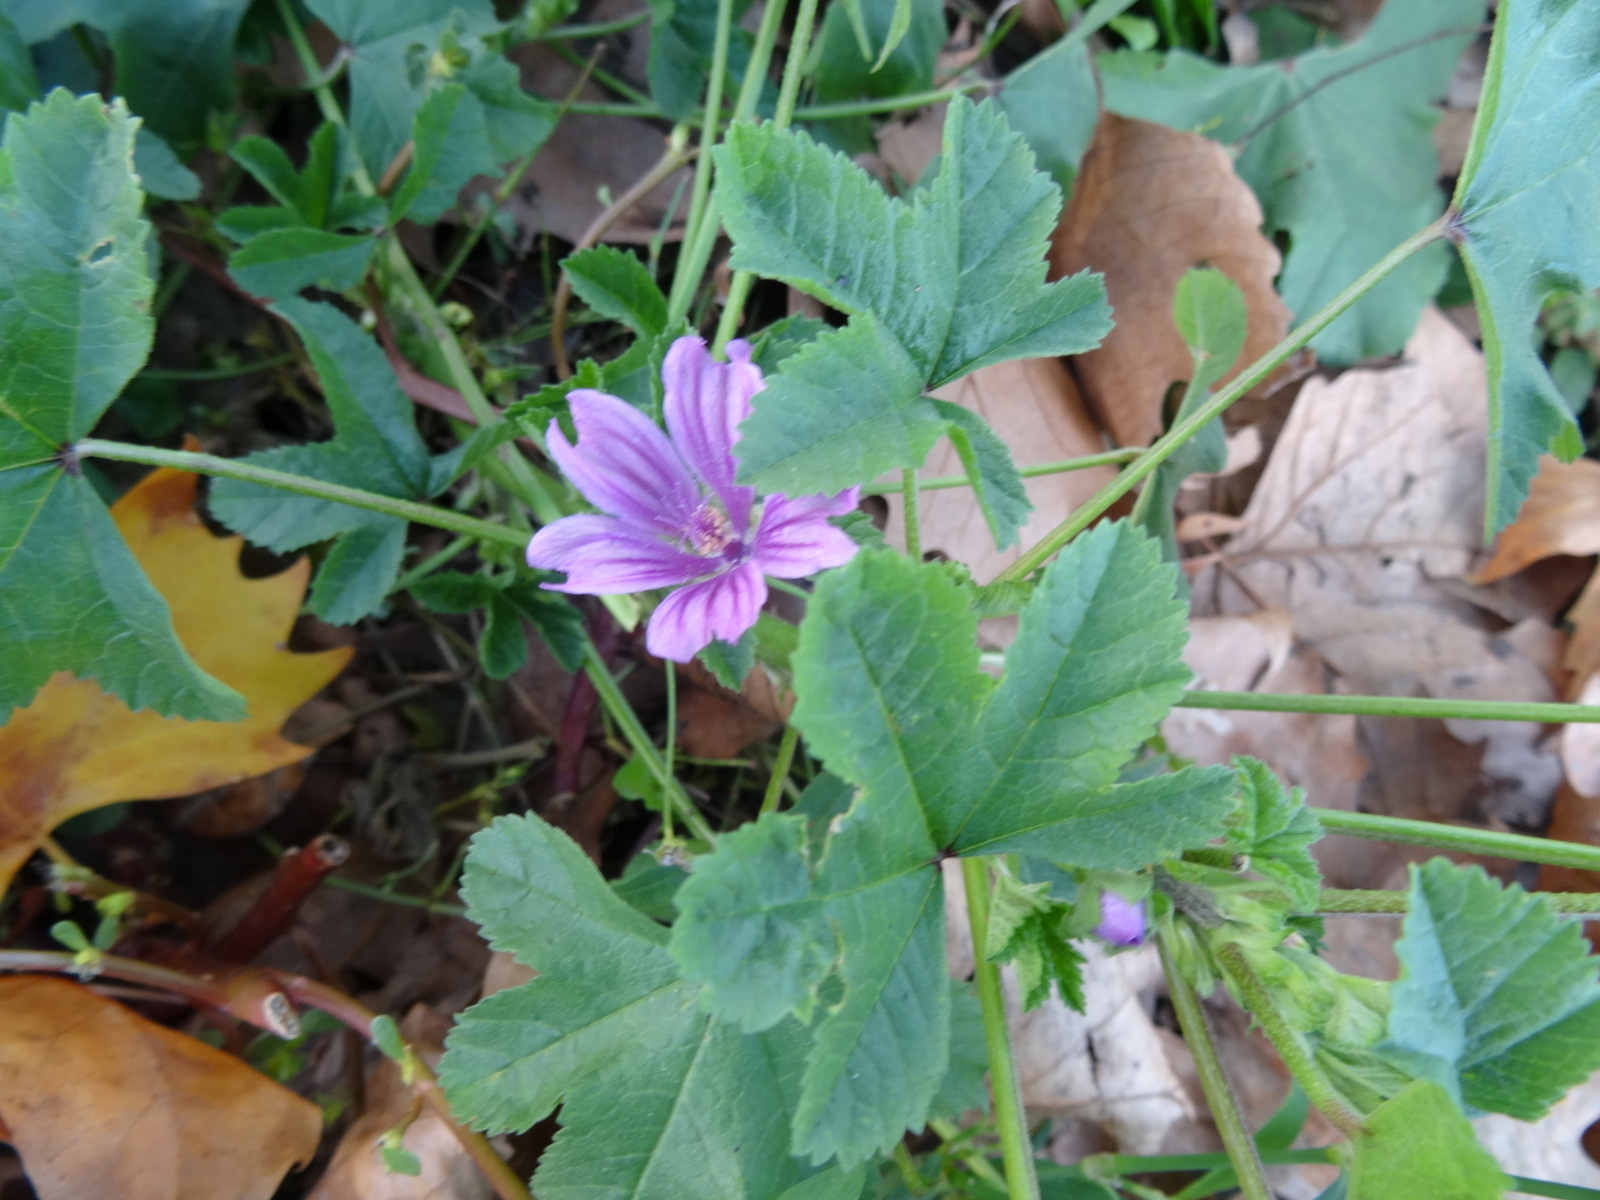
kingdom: Plantae
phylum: Tracheophyta
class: Magnoliopsida
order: Malvales
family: Malvaceae
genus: Malva
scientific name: Malva sylvestris
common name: Common mallow
